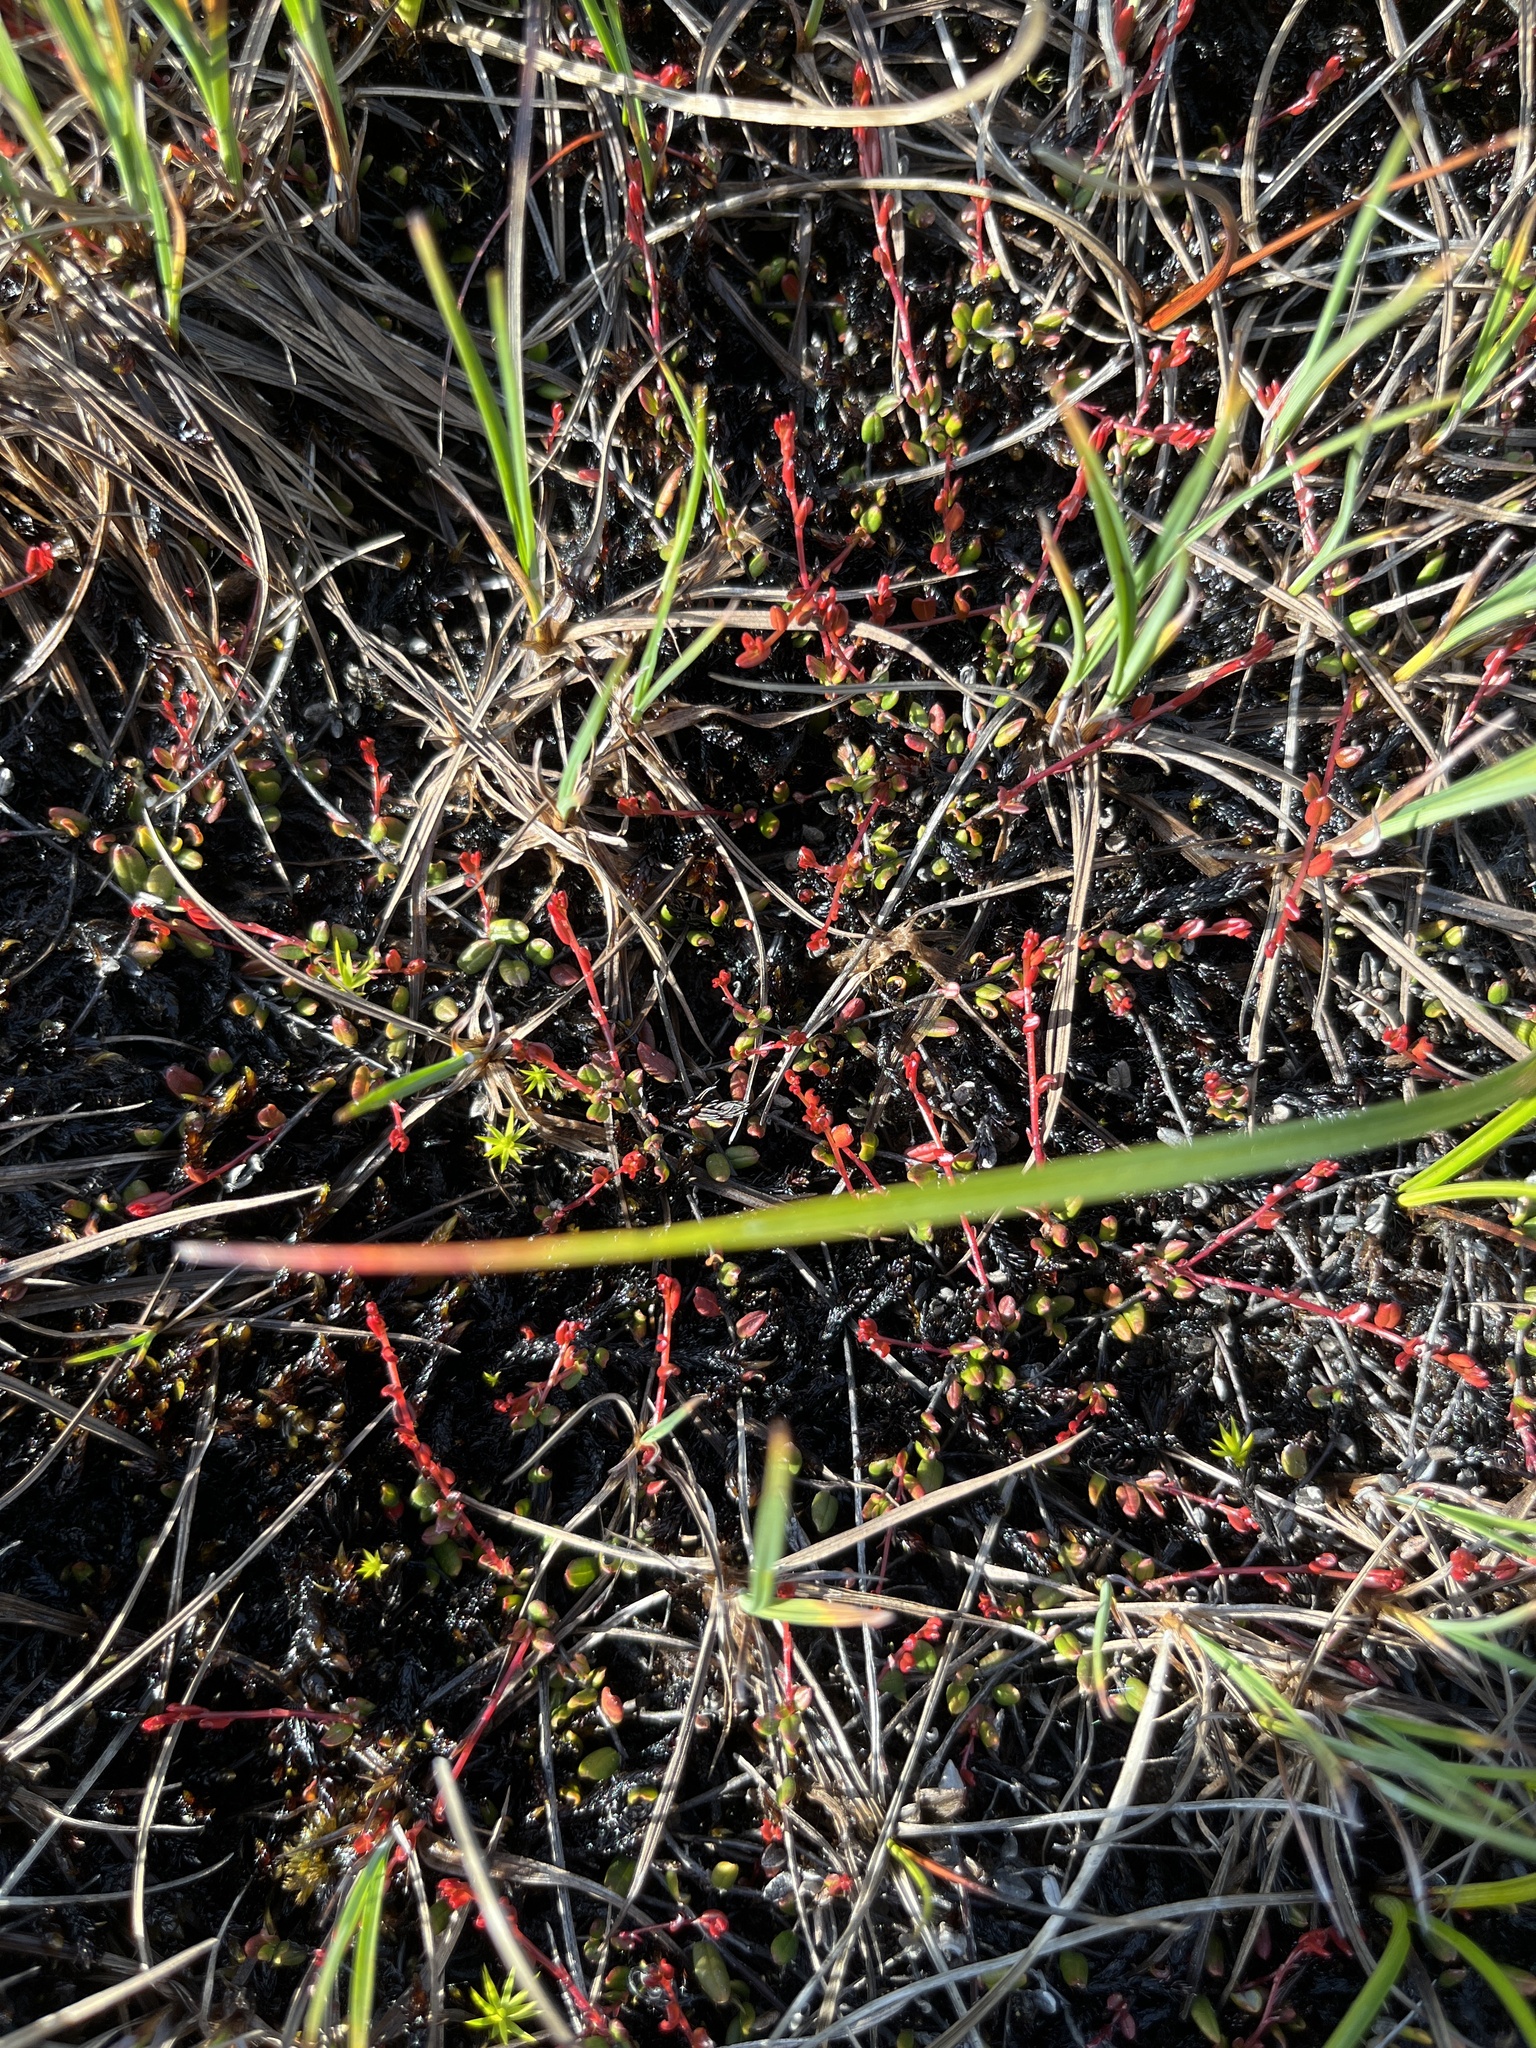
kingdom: Plantae
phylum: Tracheophyta
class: Magnoliopsida
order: Ericales
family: Ericaceae
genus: Vaccinium
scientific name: Vaccinium oxycoccos
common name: Cranberry
